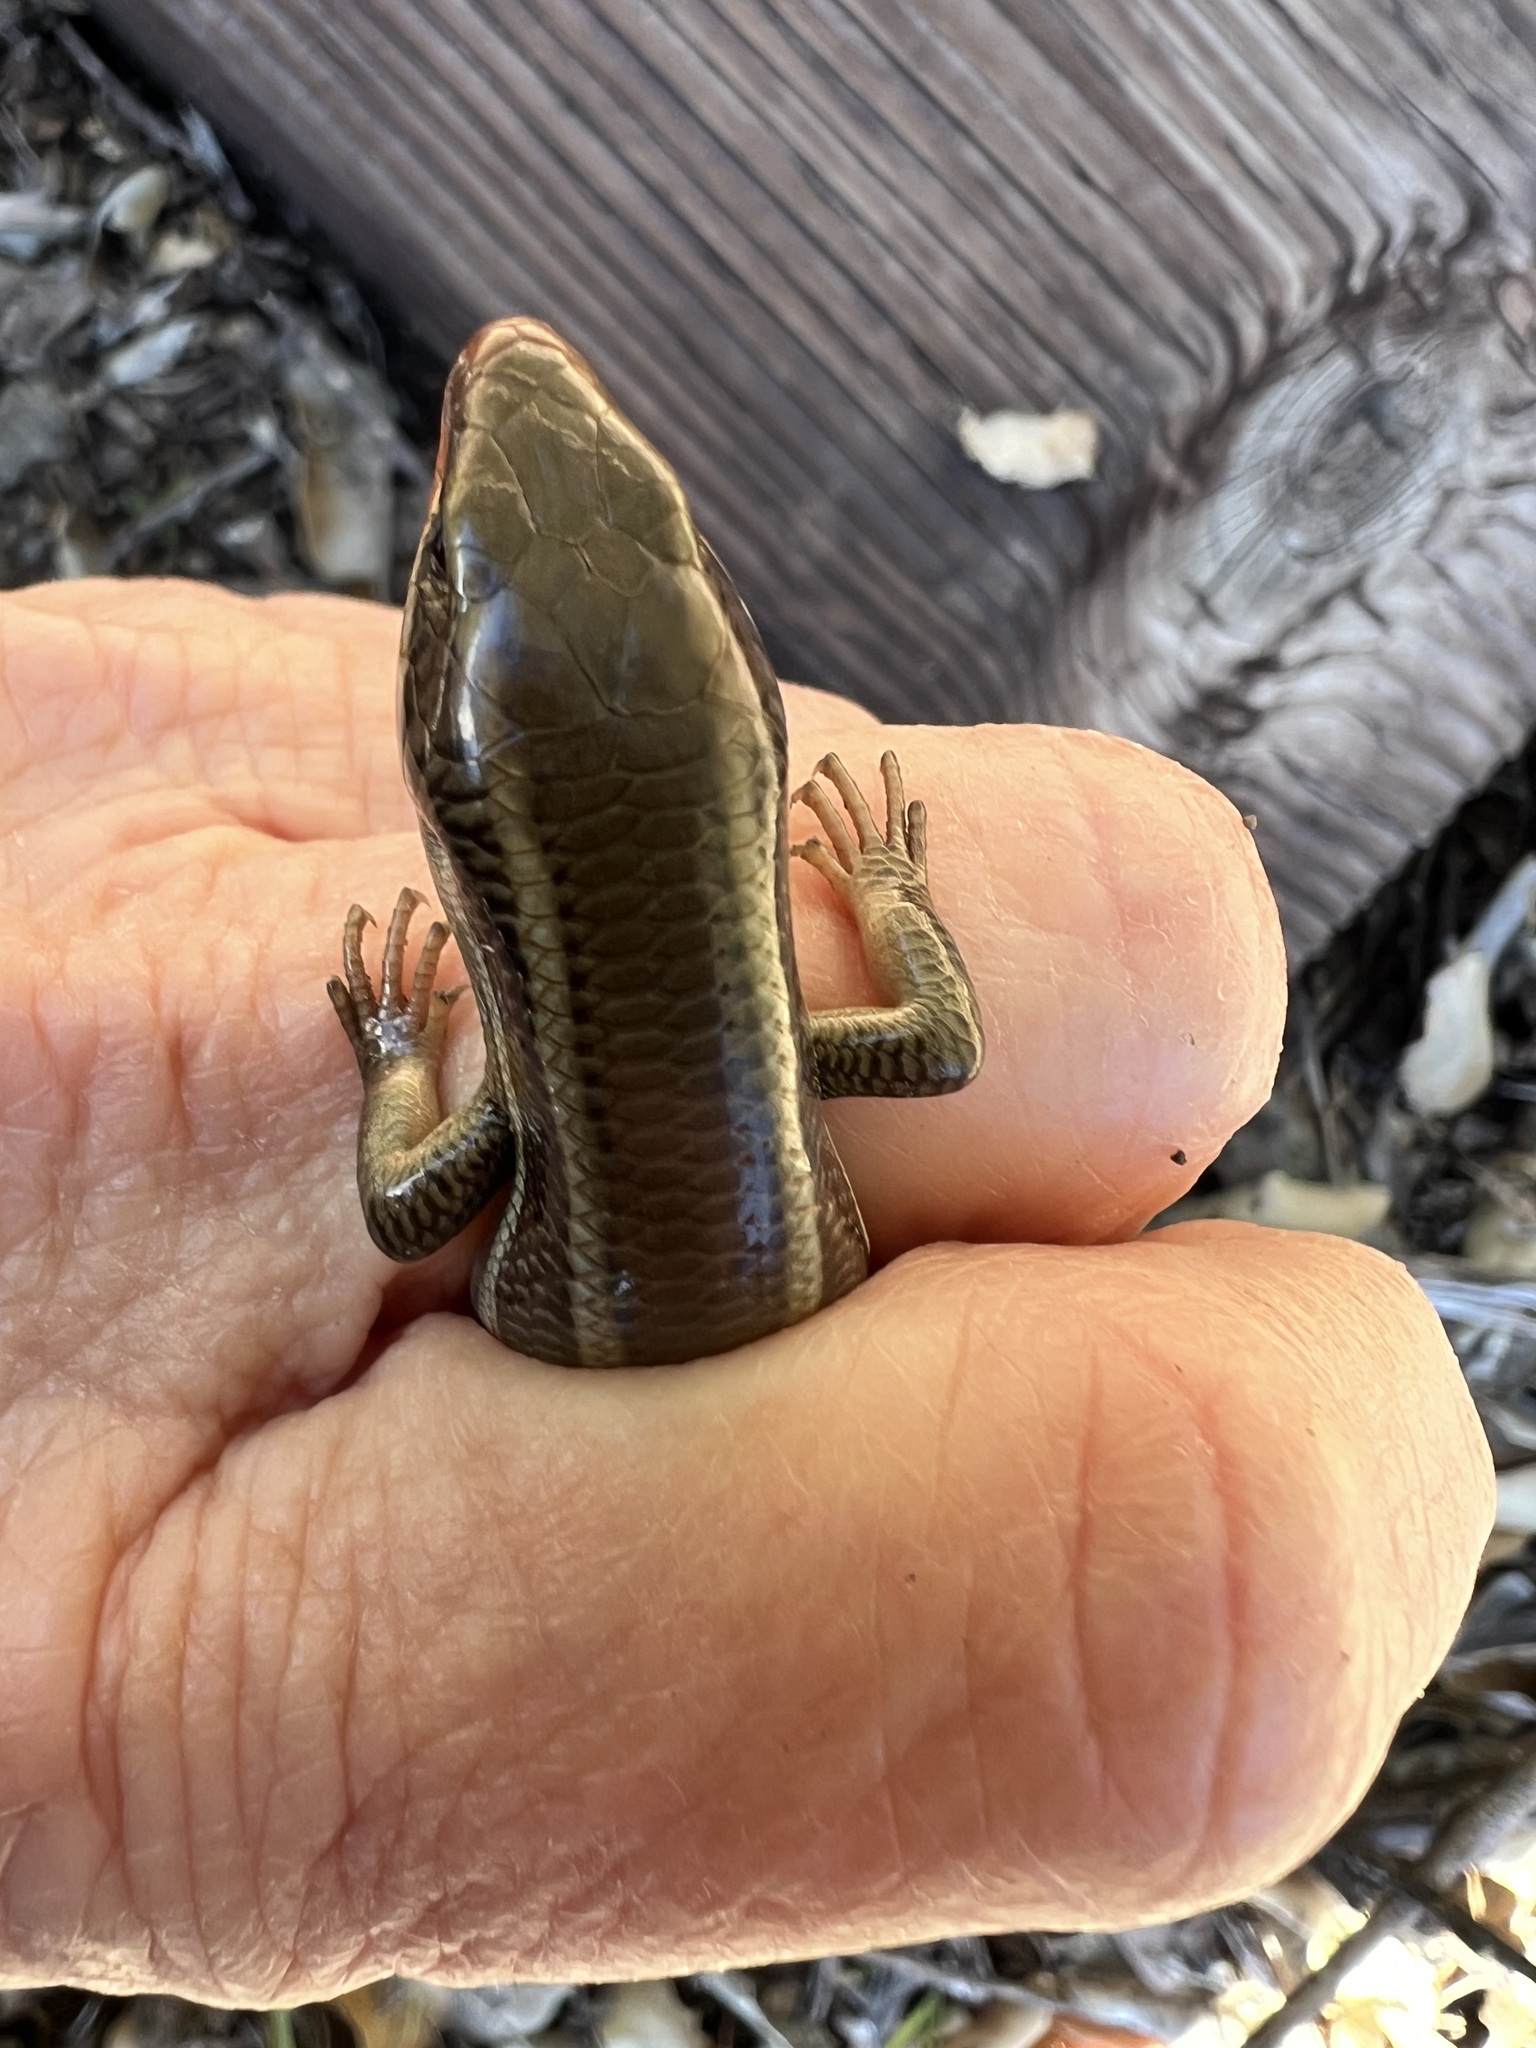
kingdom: Animalia
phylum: Chordata
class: Squamata
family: Scincidae
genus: Plestiodon
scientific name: Plestiodon skiltonianus
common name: Coronado island skink [interparietalis]
